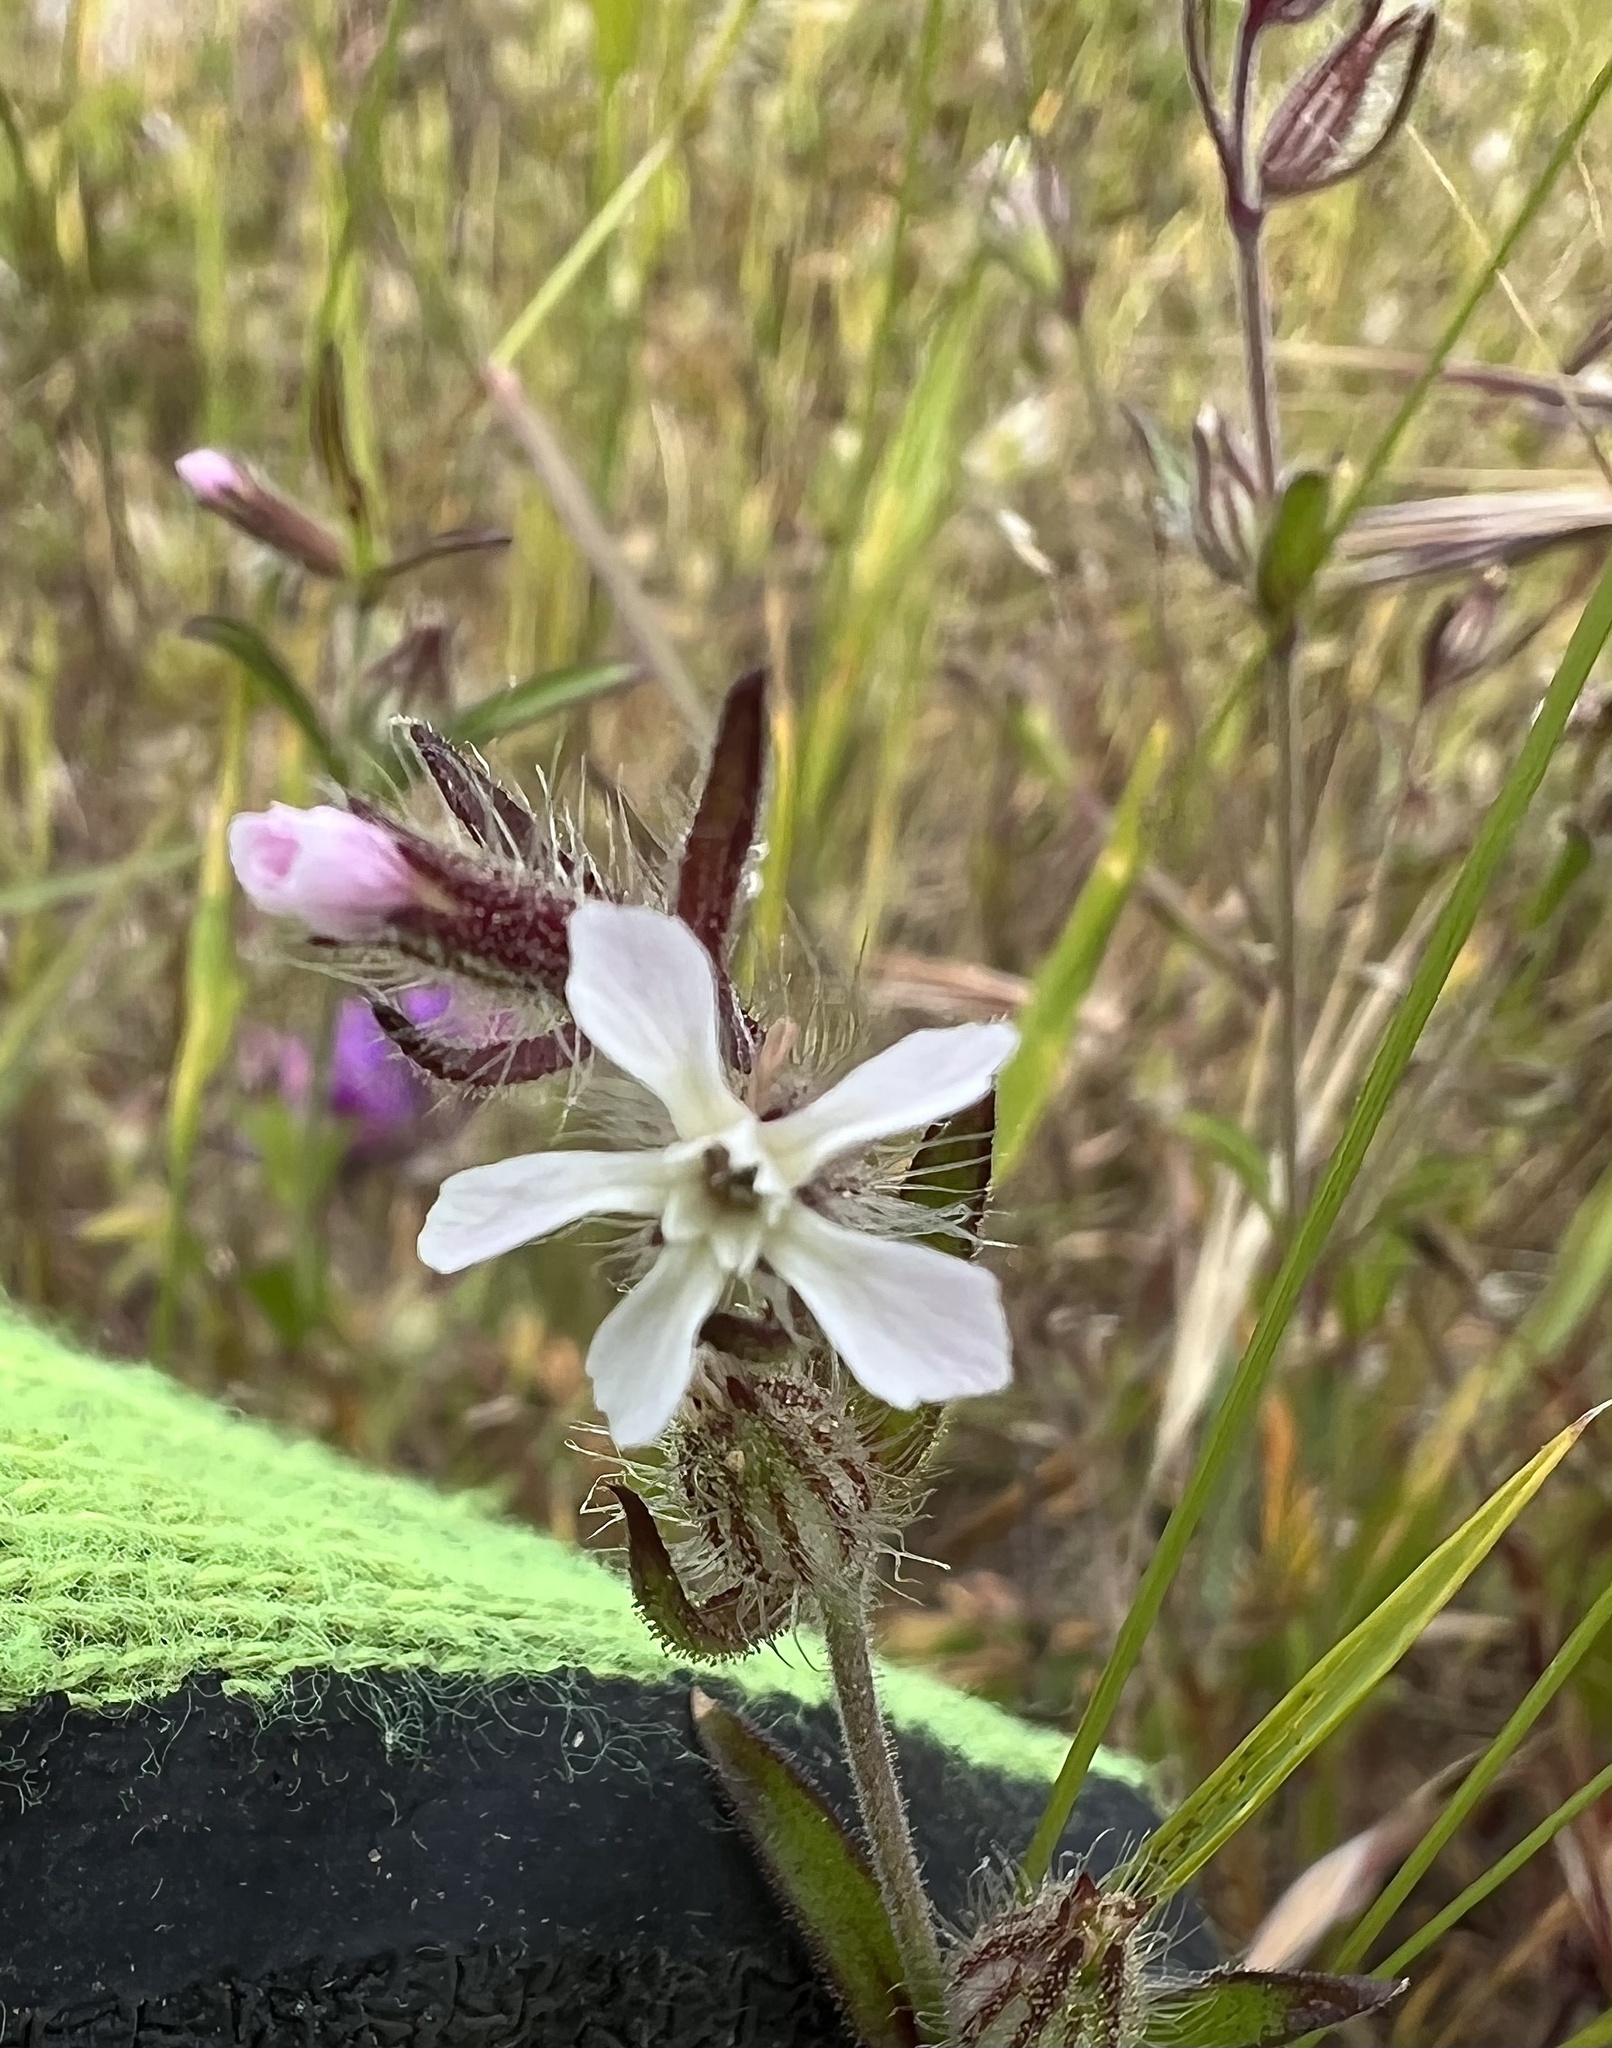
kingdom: Plantae
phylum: Tracheophyta
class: Magnoliopsida
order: Caryophyllales
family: Caryophyllaceae
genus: Silene
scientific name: Silene gallica
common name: Small-flowered catchfly
